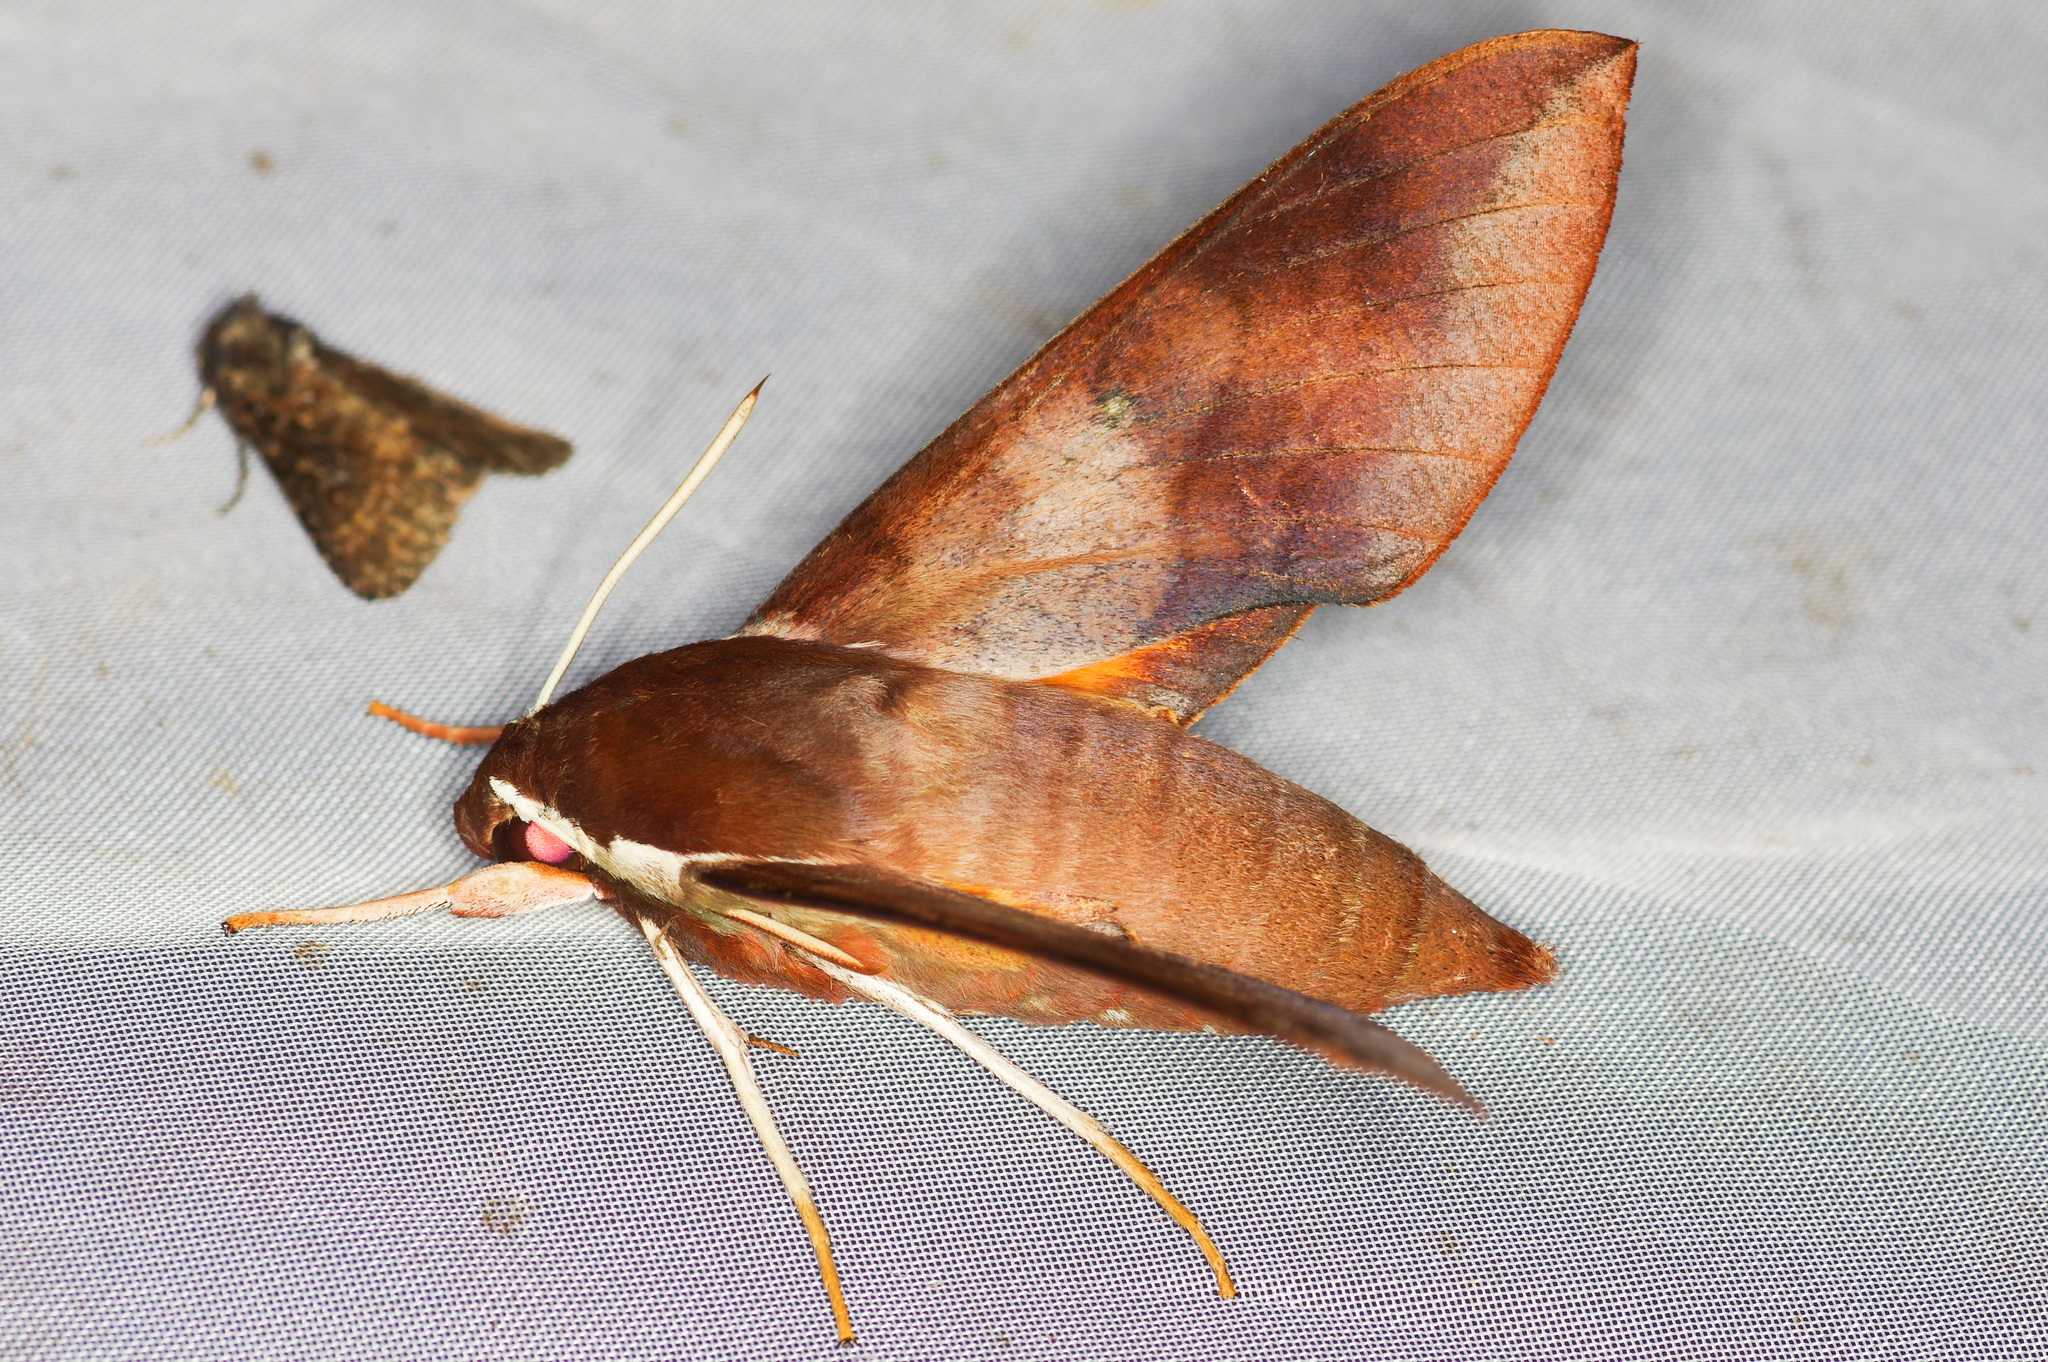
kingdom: Animalia
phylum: Arthropoda
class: Insecta
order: Lepidoptera
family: Sphingidae
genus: Gnathothlibus
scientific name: Gnathothlibus salesnei
